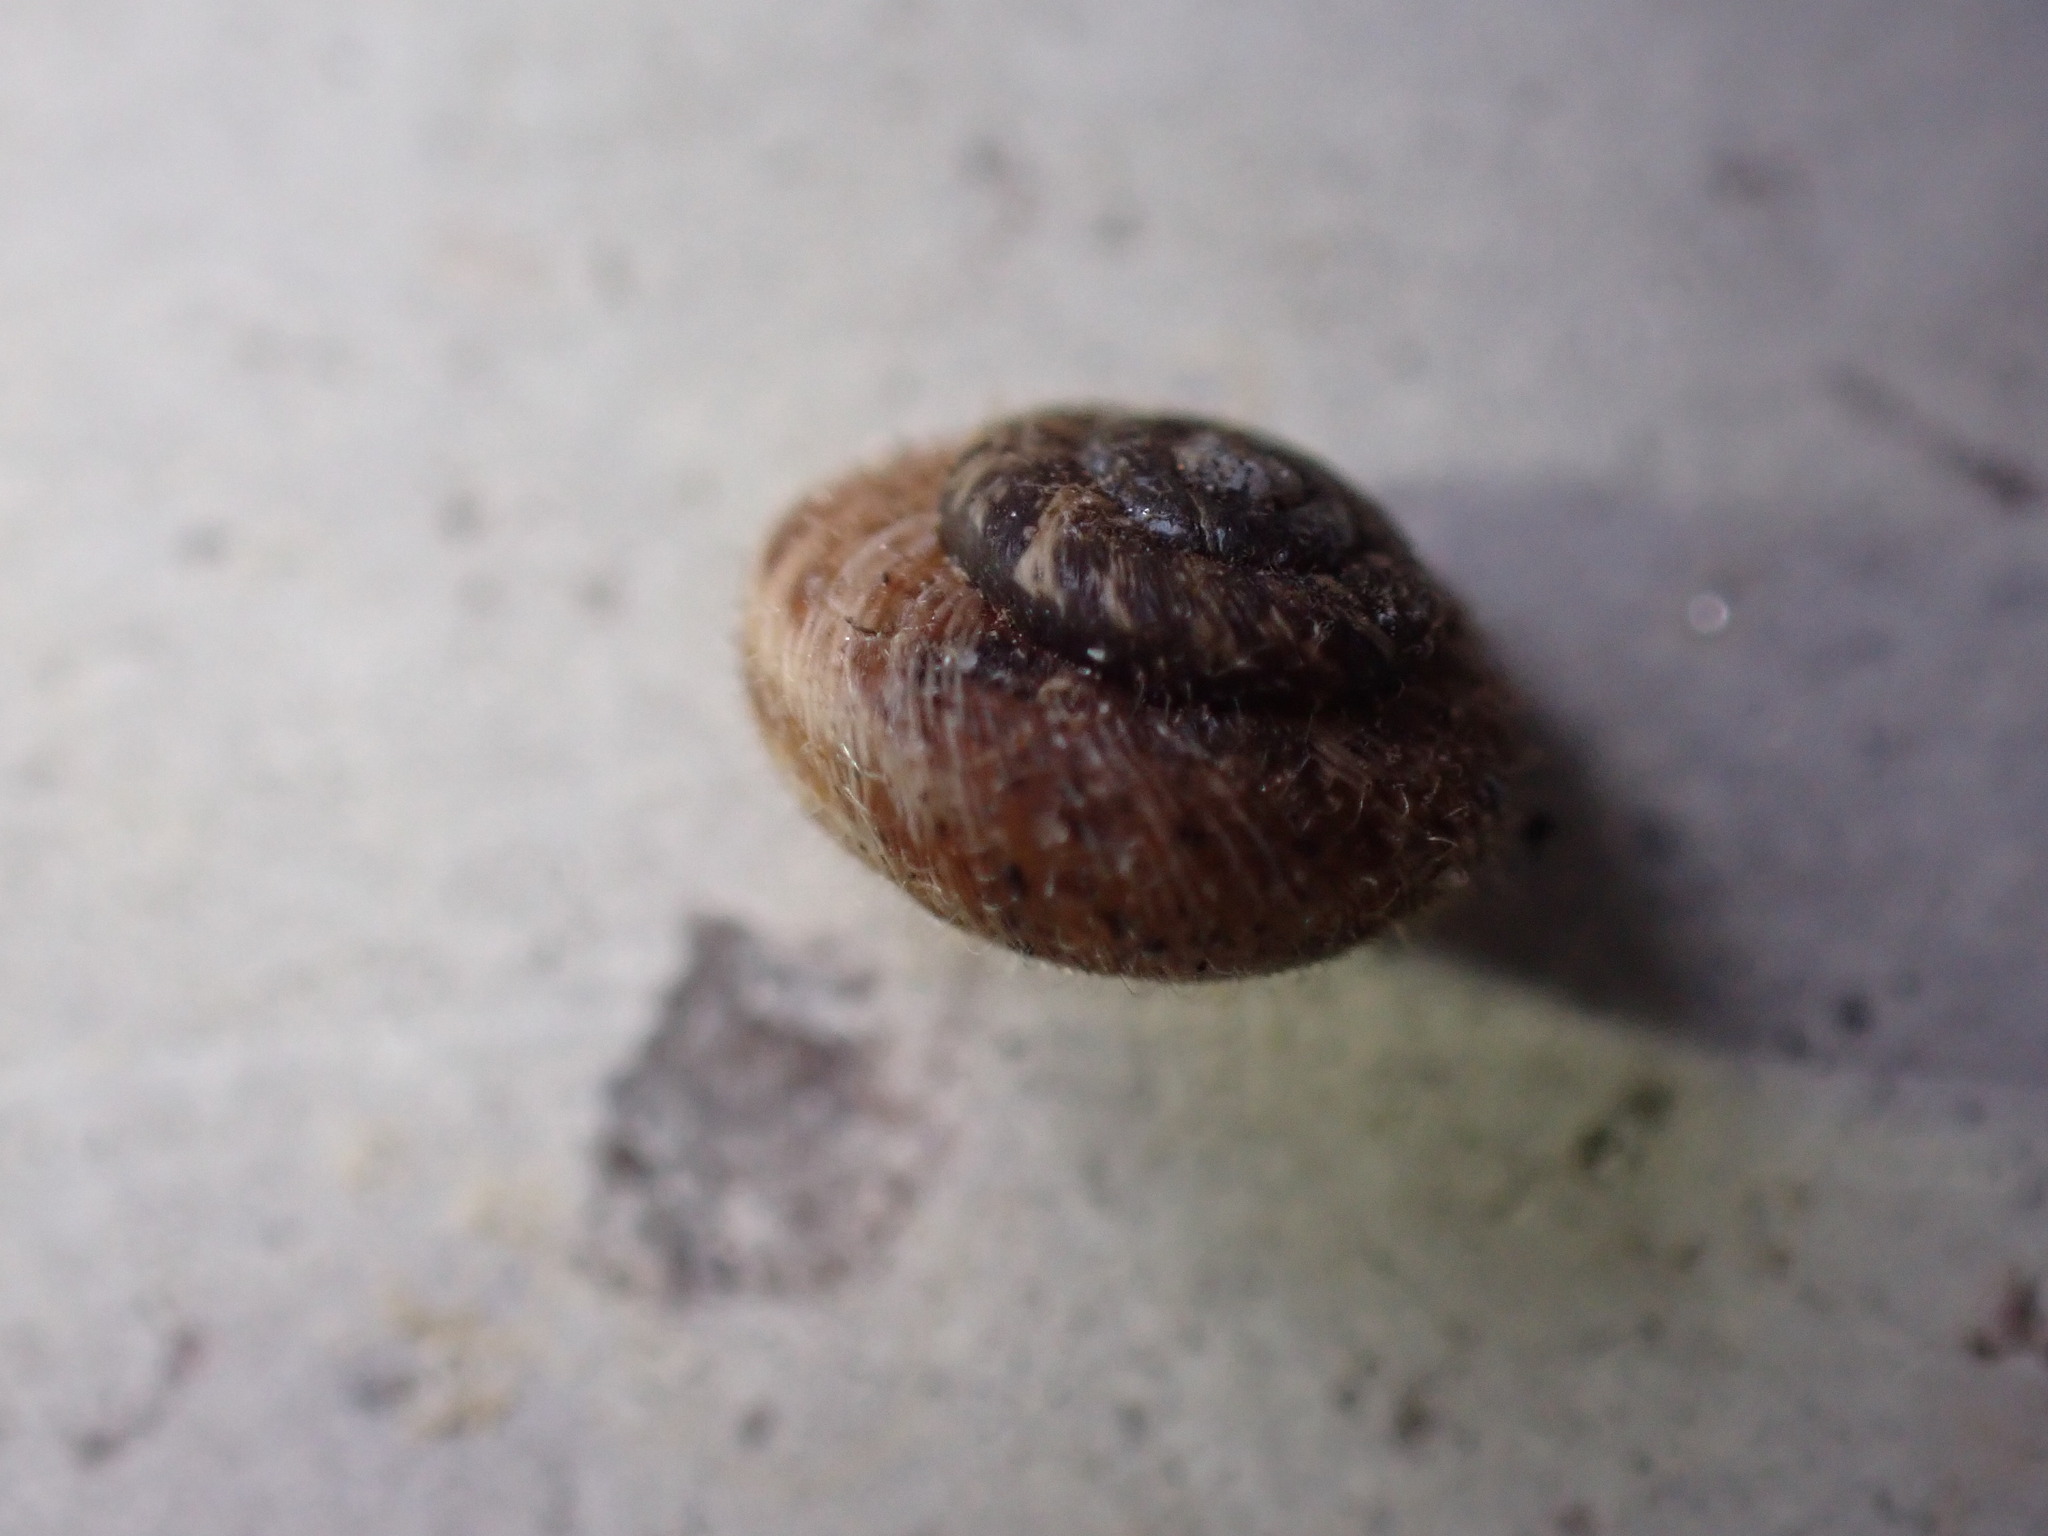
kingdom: Animalia
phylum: Mollusca
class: Gastropoda
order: Stylommatophora
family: Geomitridae
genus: Xerotricha
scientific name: Xerotricha conspurcata
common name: Snail
